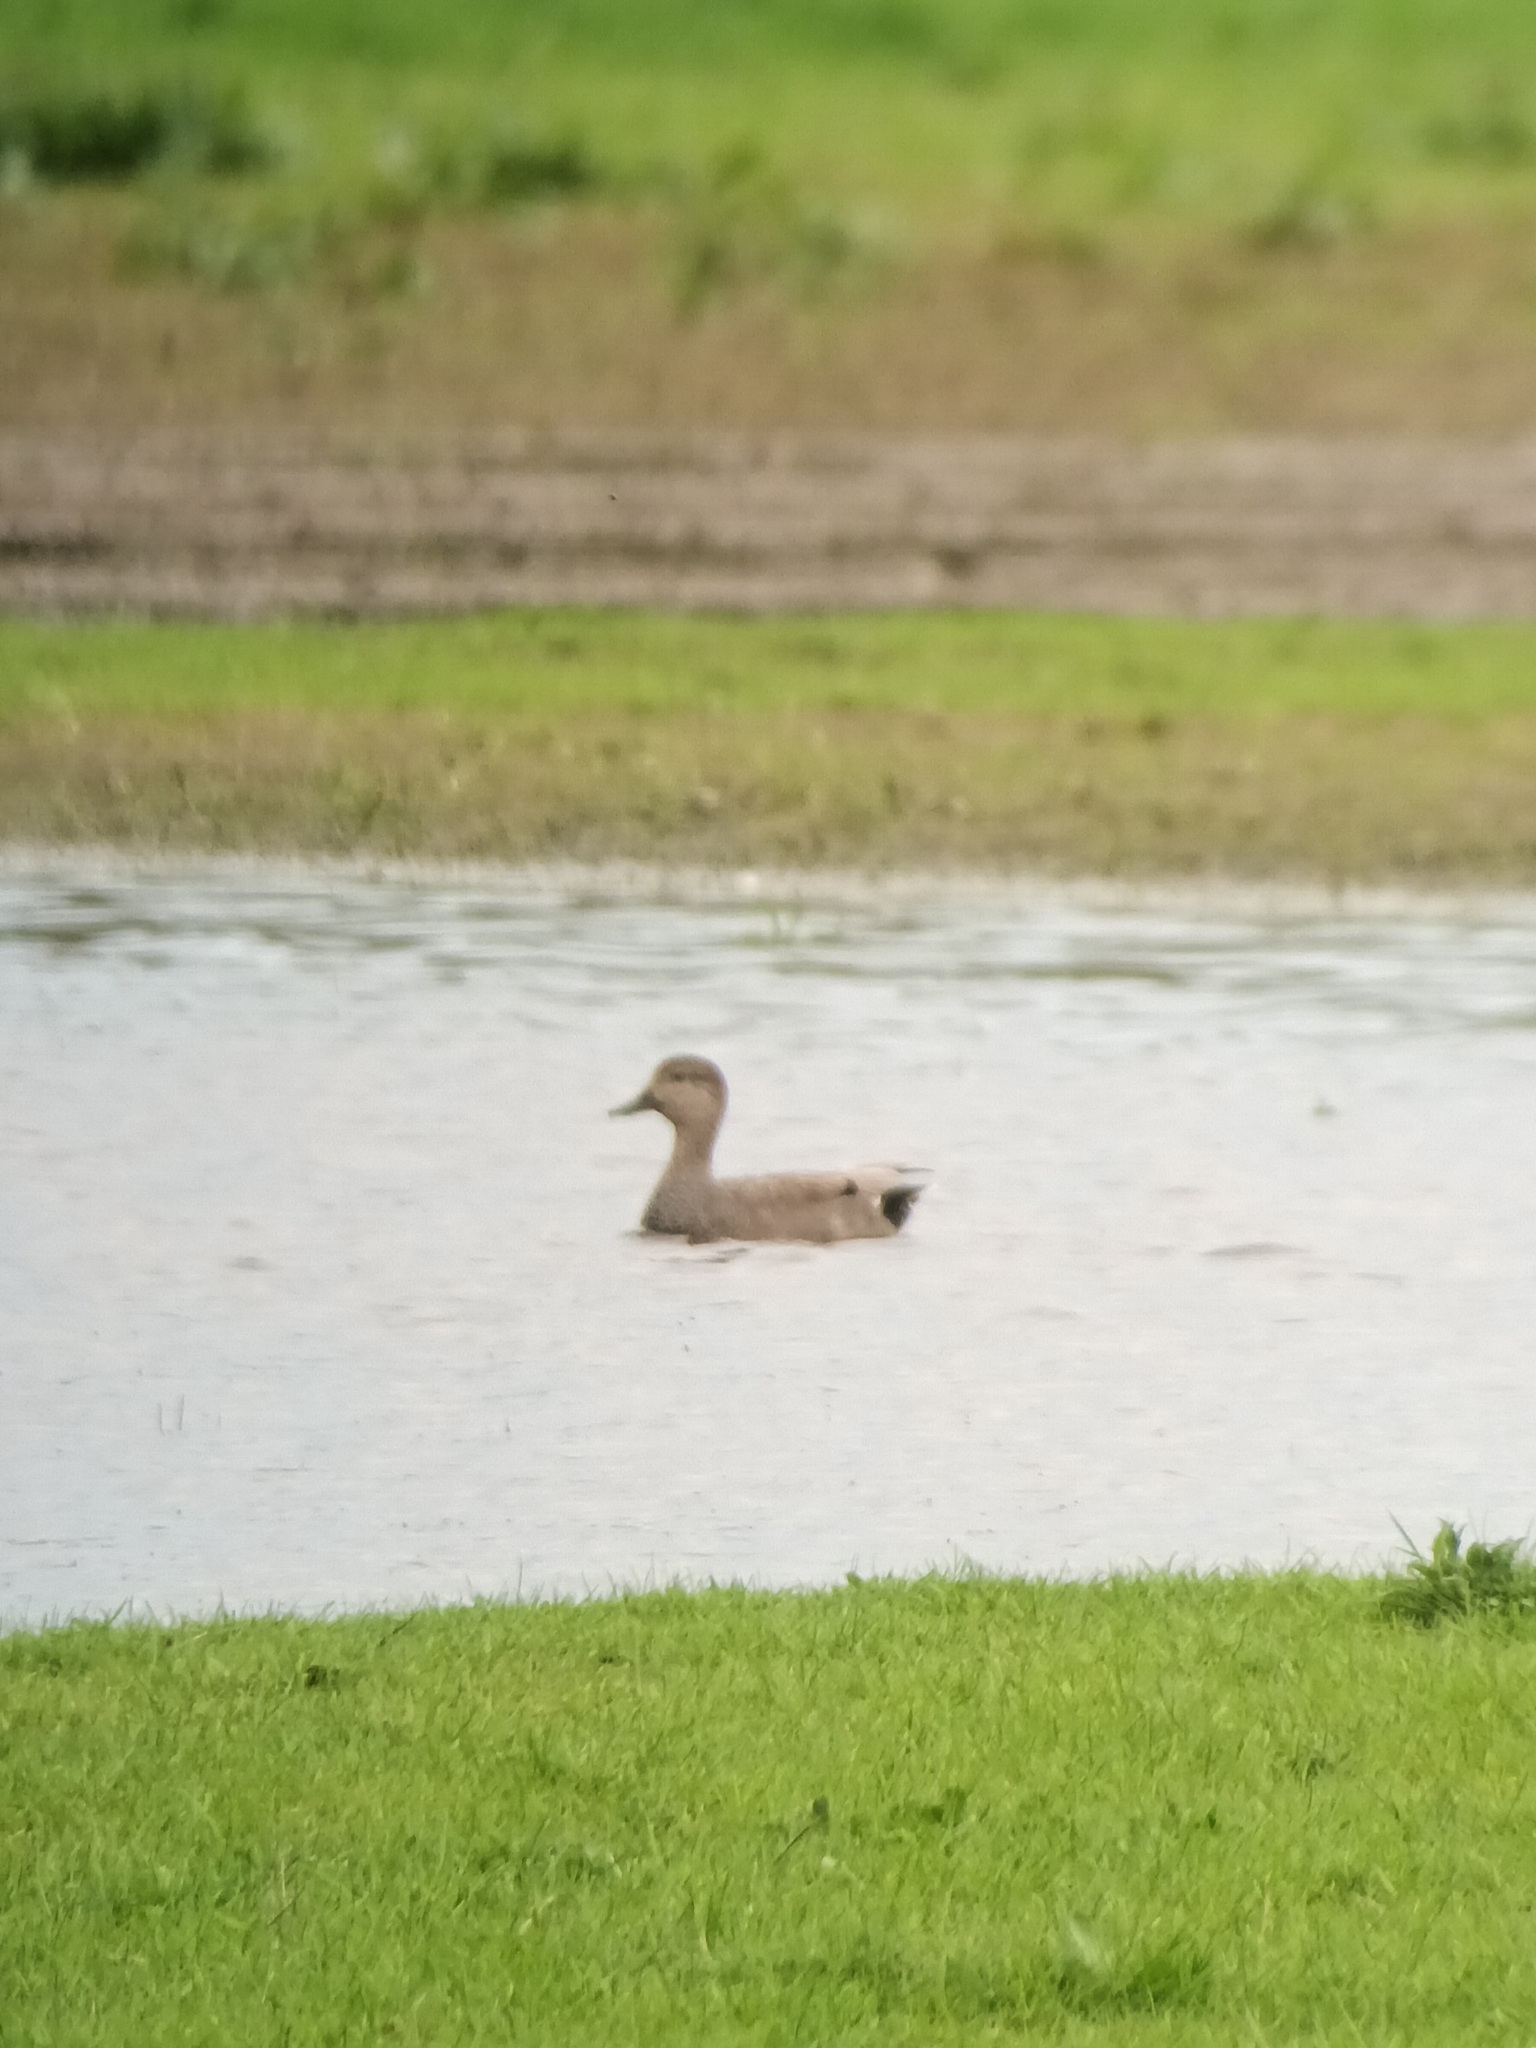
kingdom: Animalia
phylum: Chordata
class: Aves
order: Anseriformes
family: Anatidae
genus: Mareca
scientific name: Mareca strepera
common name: Gadwall
